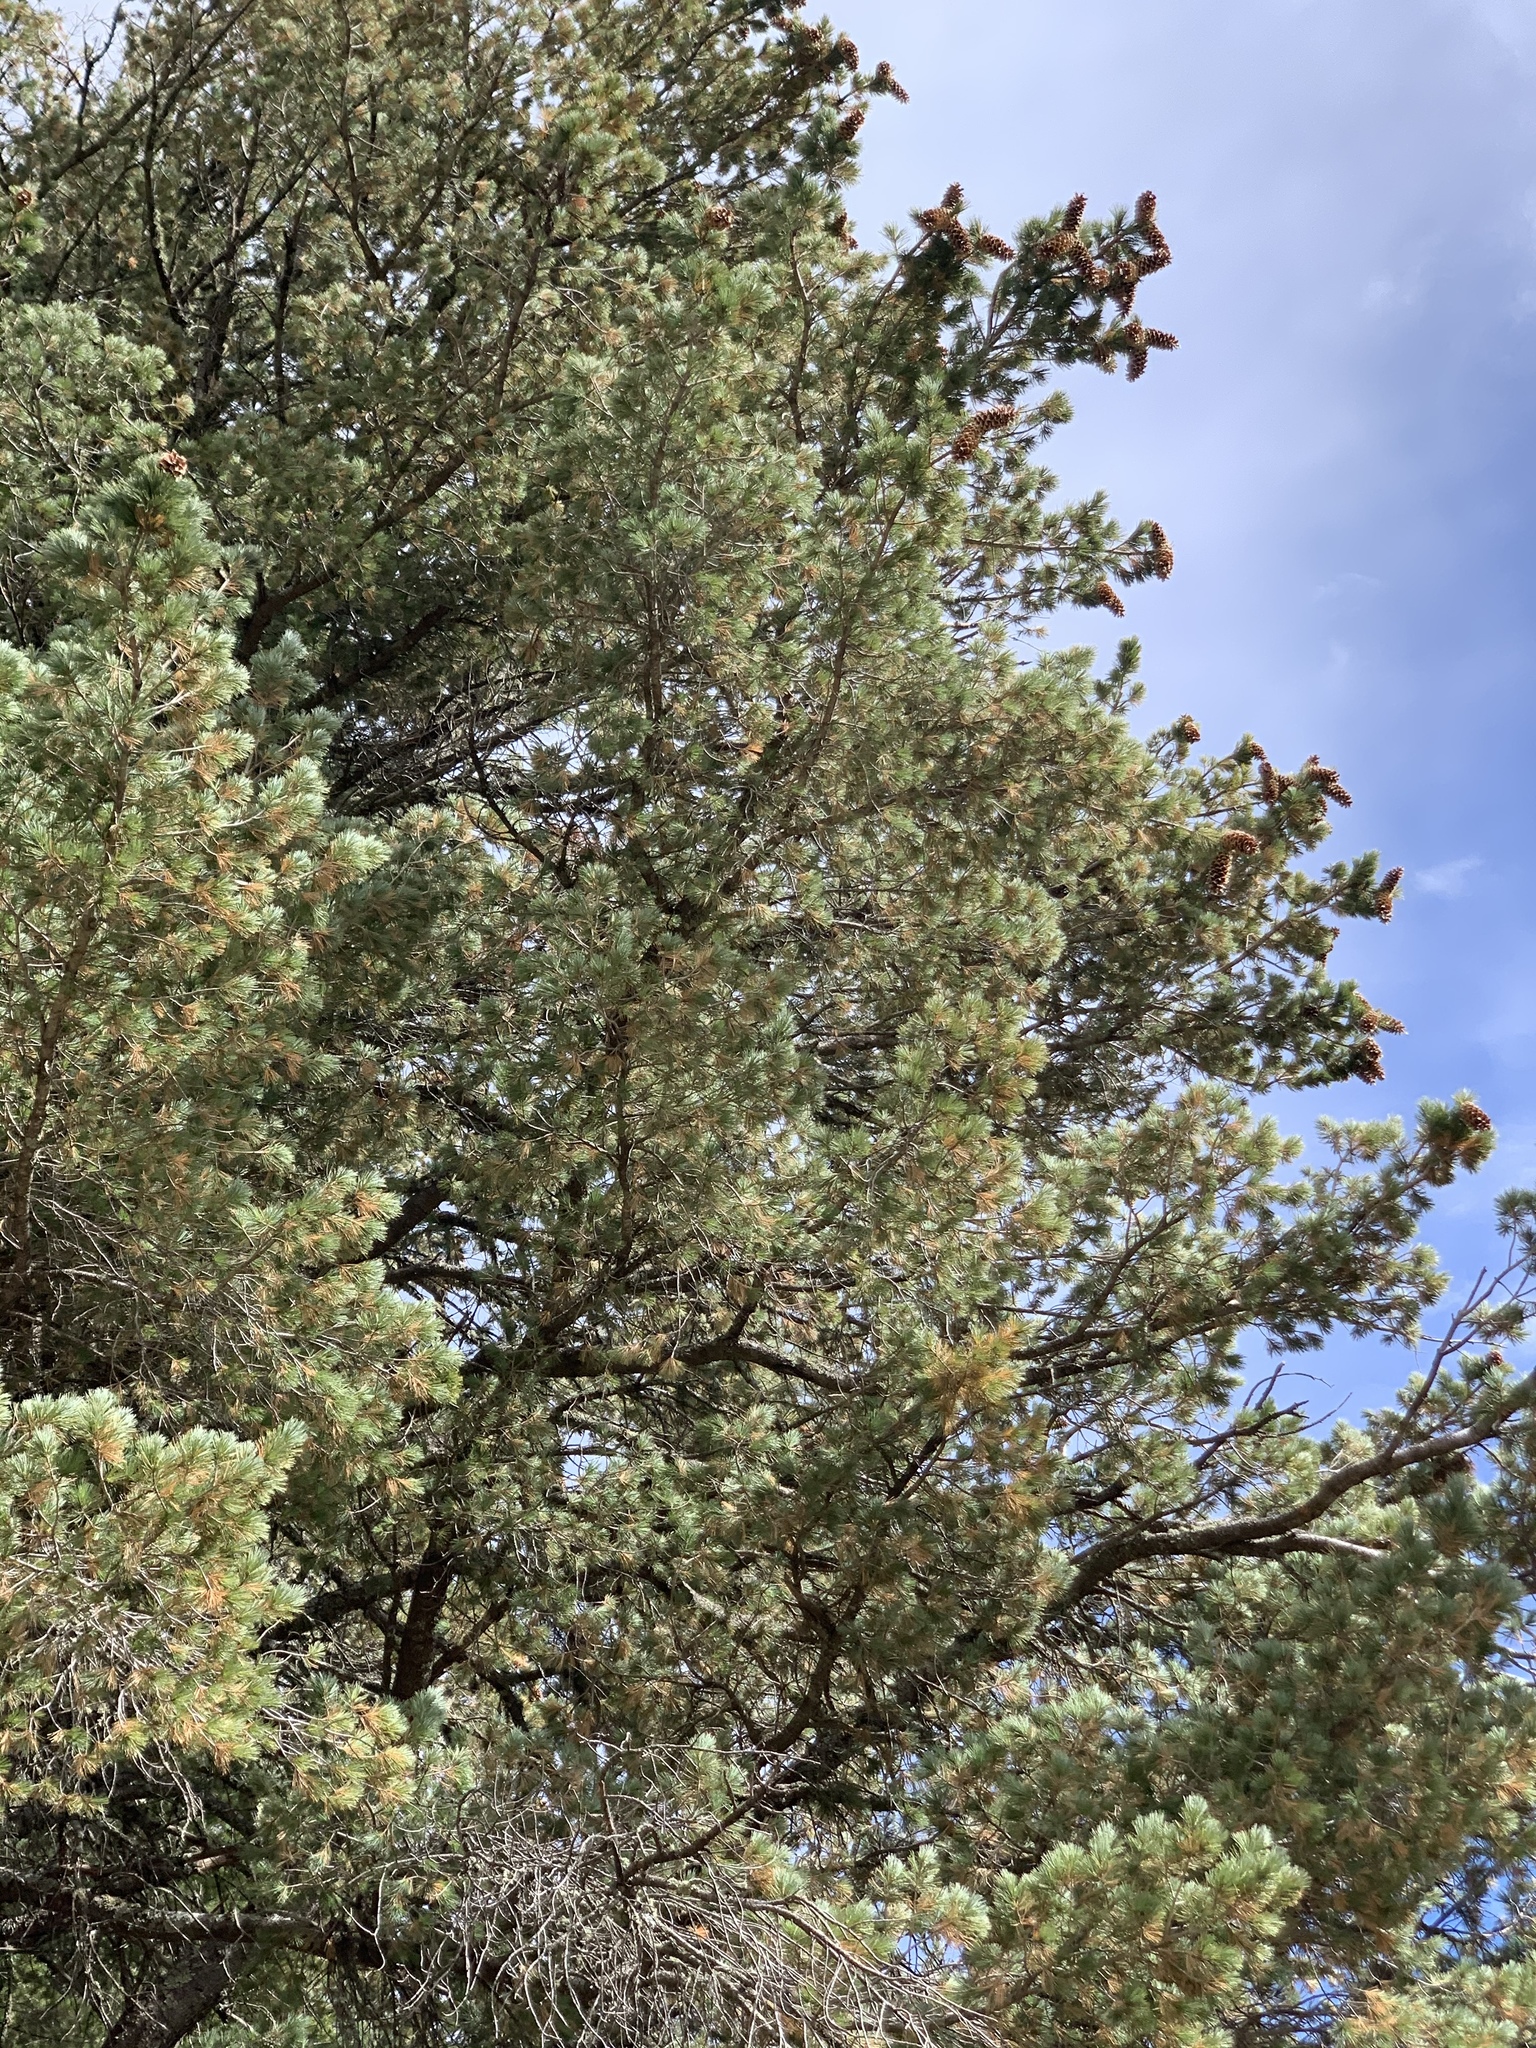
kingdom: Plantae
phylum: Tracheophyta
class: Pinopsida
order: Pinales
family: Pinaceae
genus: Pinus
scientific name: Pinus strobiformis
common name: Southwestern white pine
